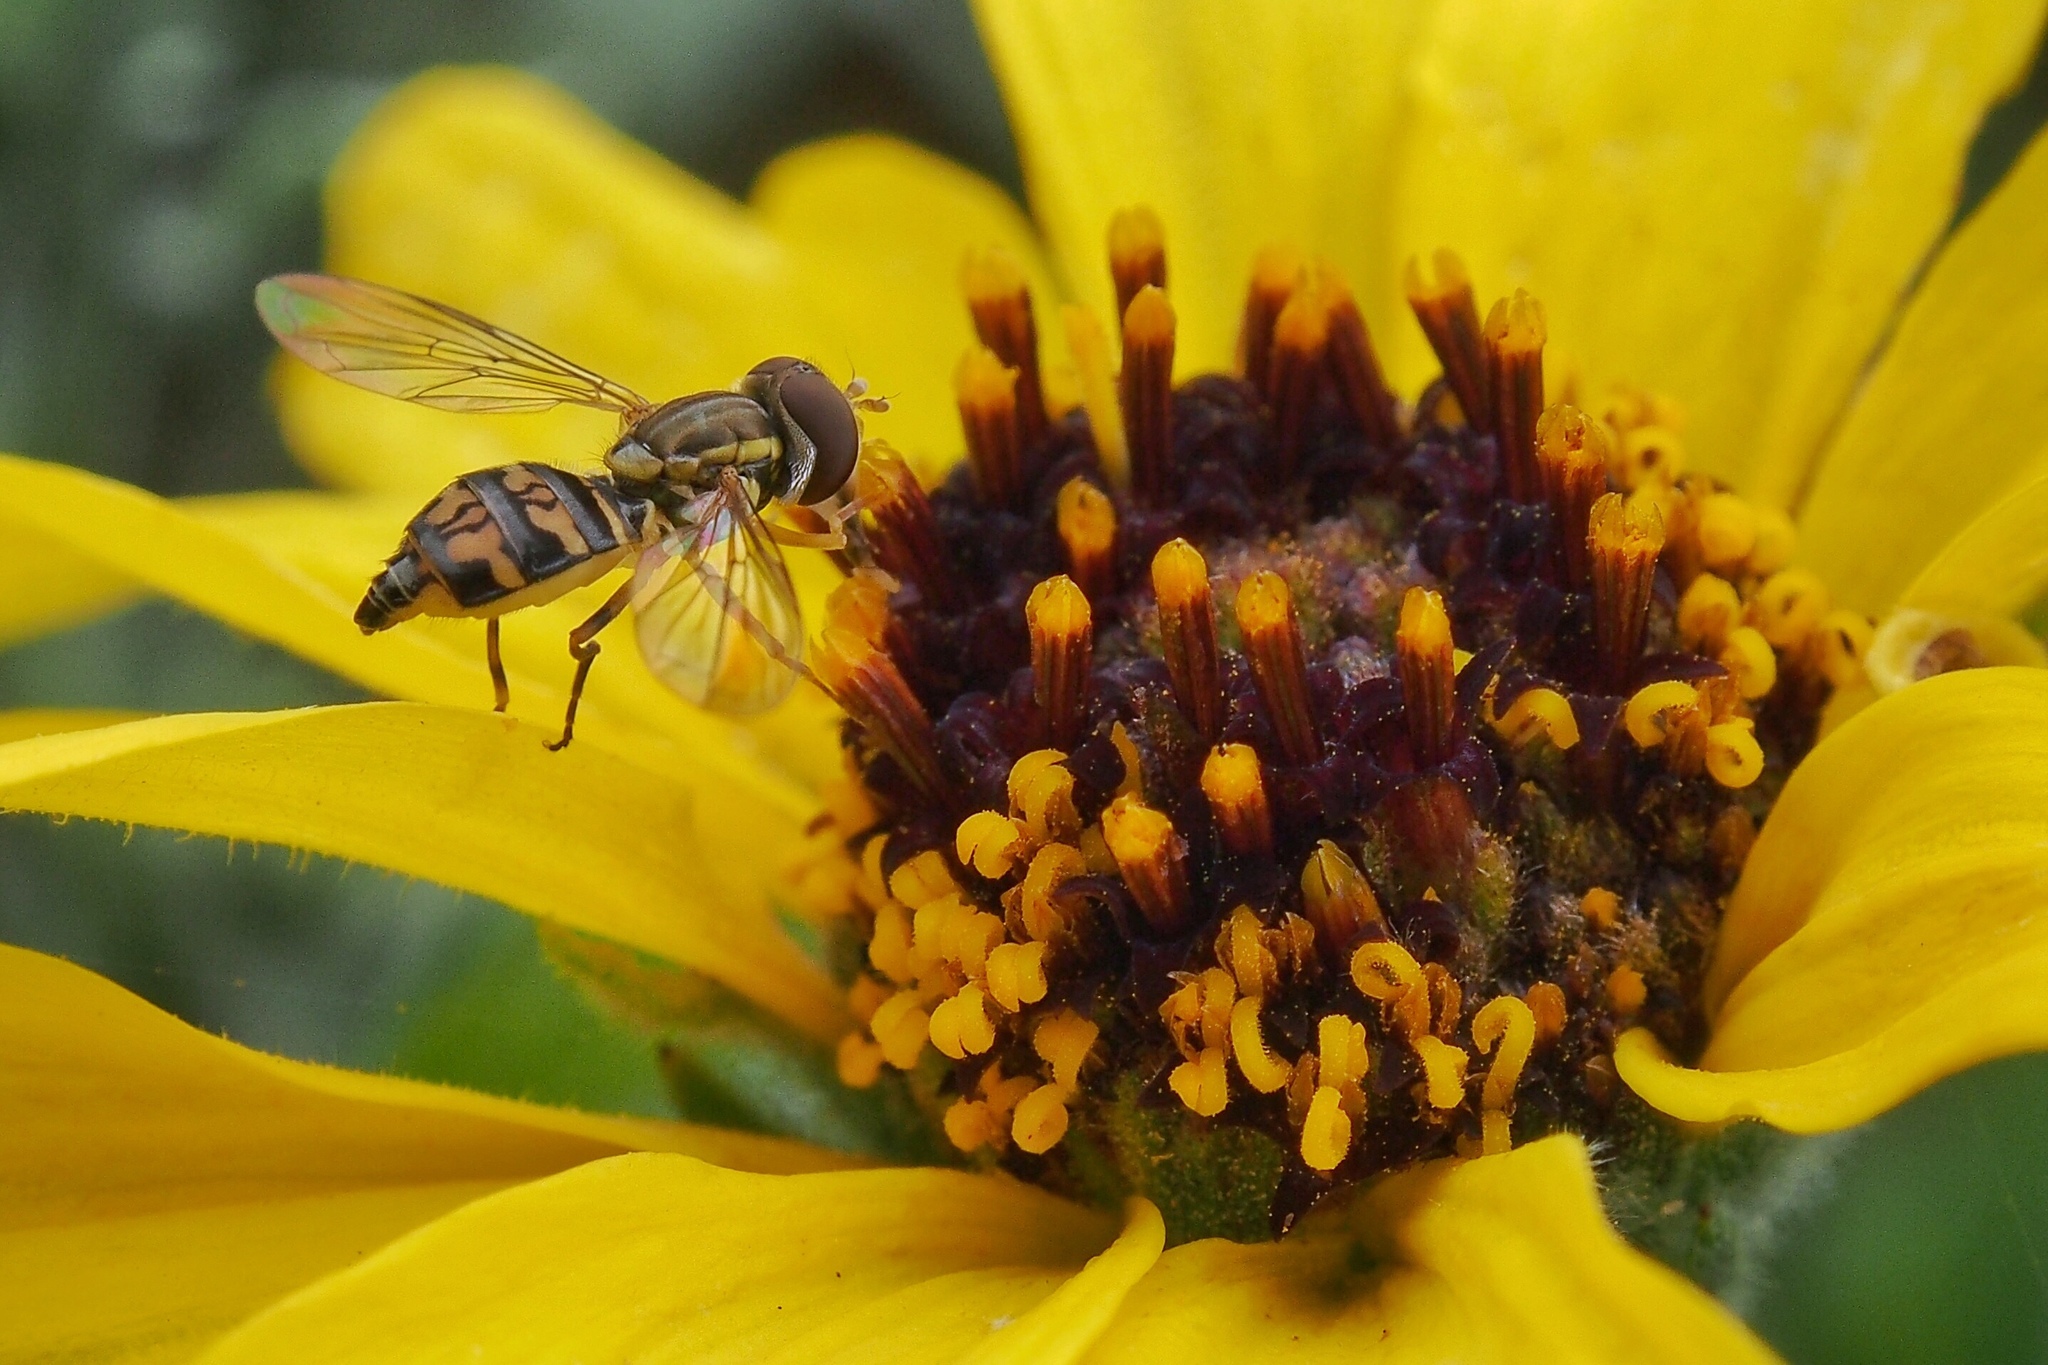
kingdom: Animalia
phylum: Arthropoda
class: Insecta
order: Diptera
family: Syrphidae
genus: Toxomerus
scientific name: Toxomerus occidentalis
